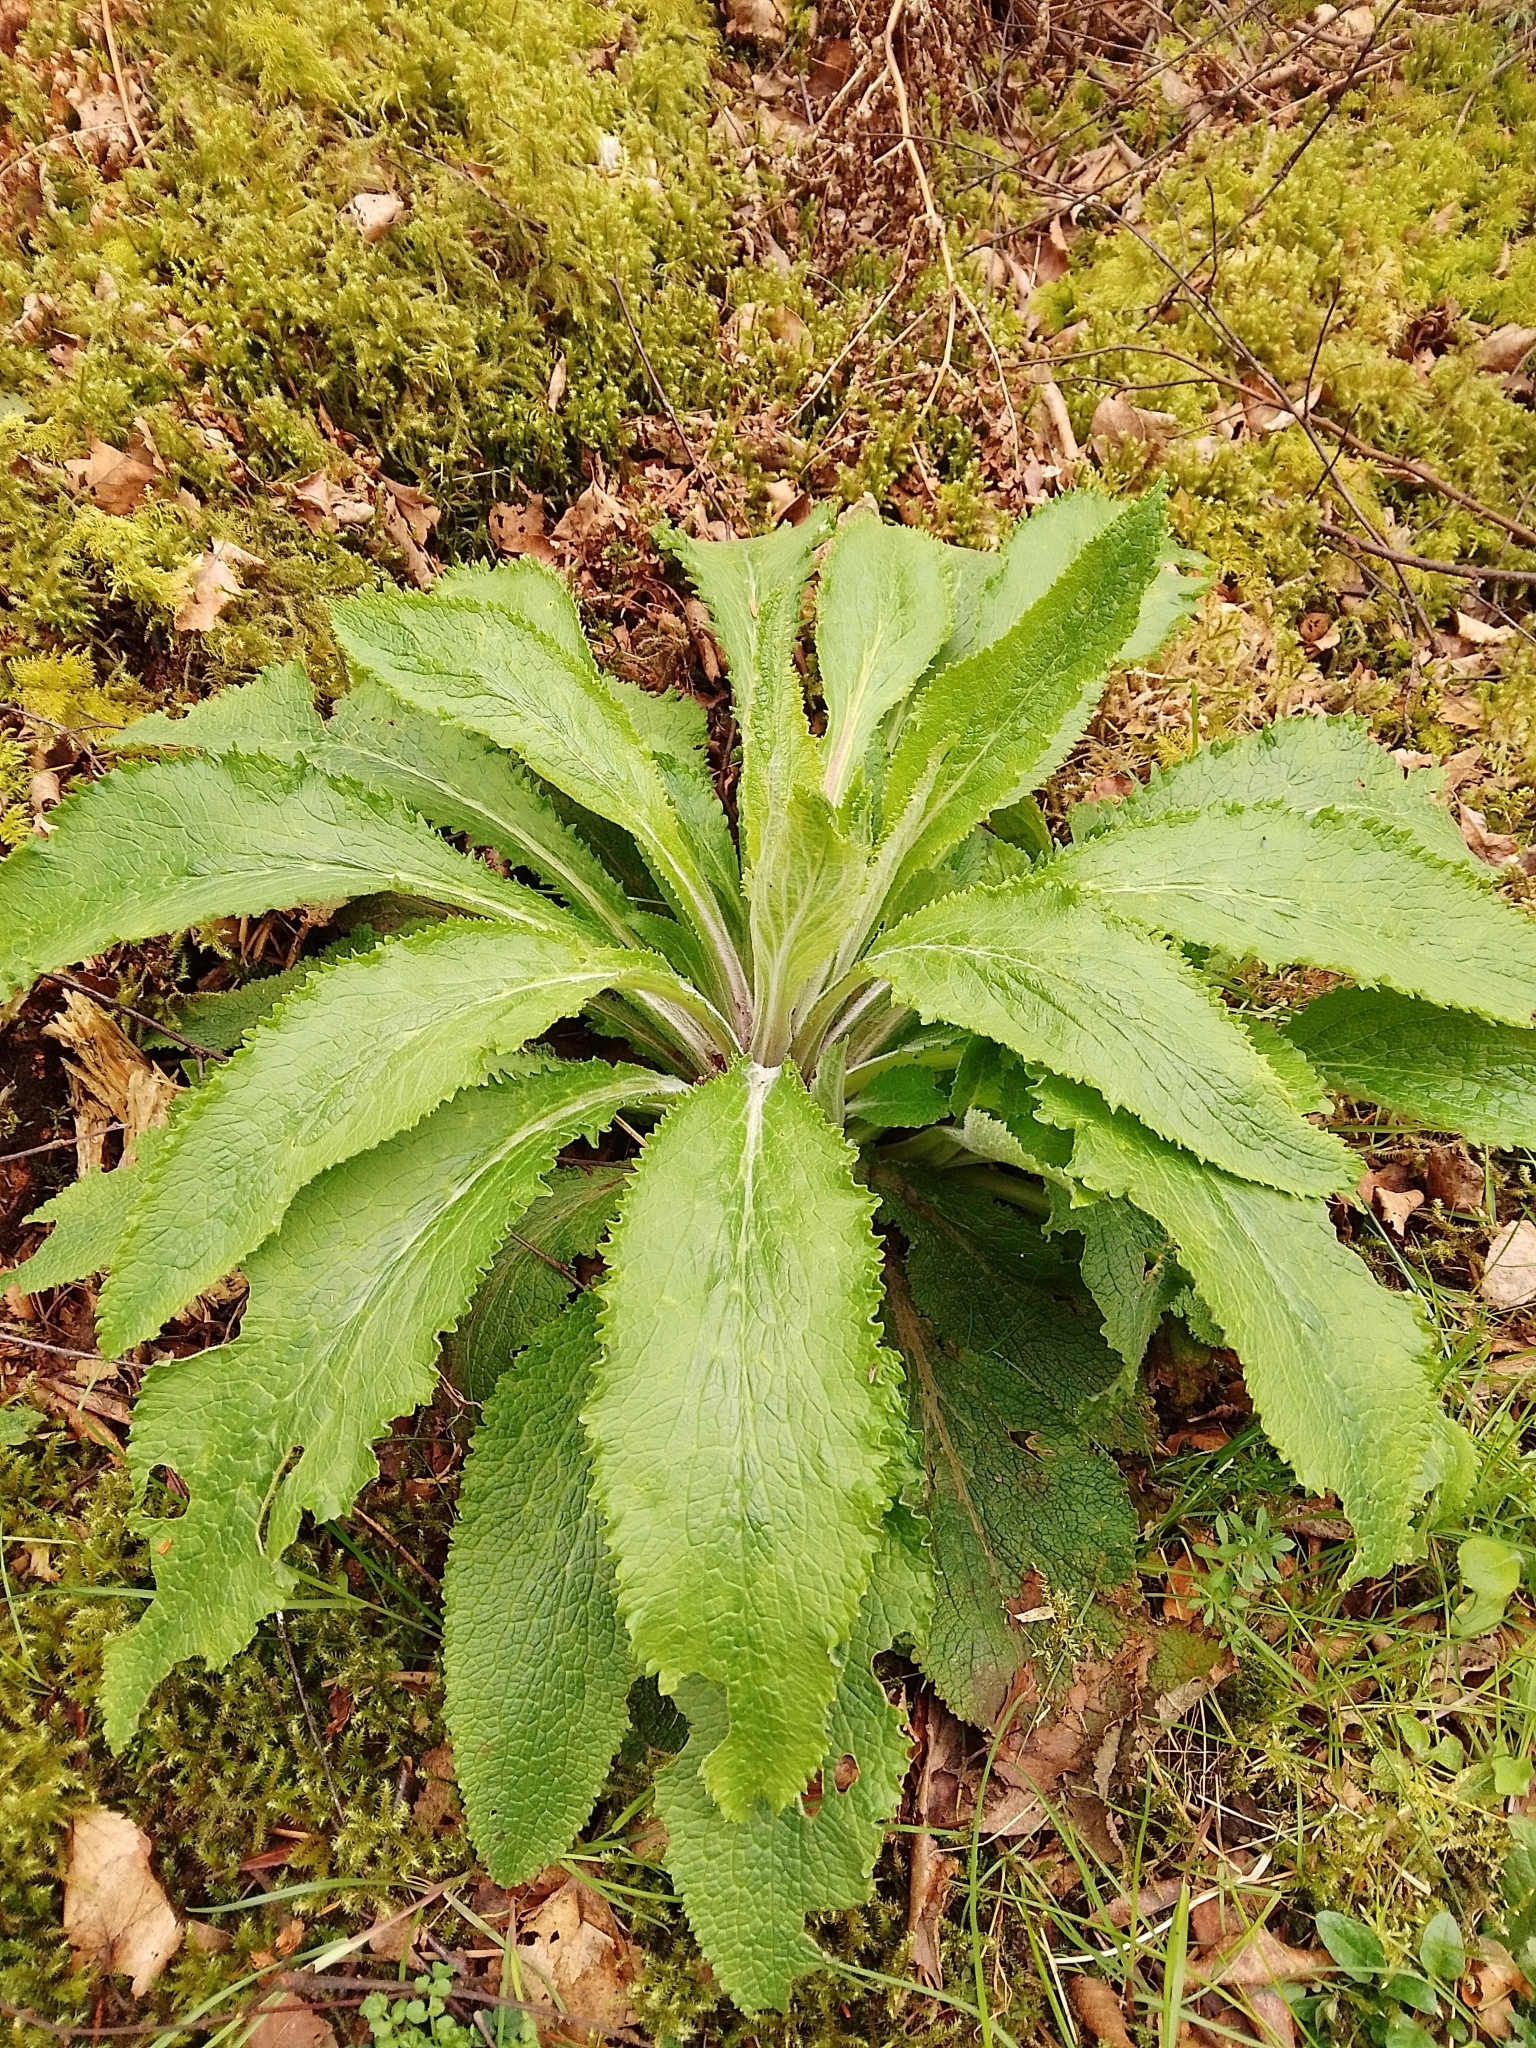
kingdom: Plantae
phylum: Tracheophyta
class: Magnoliopsida
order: Lamiales
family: Plantaginaceae
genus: Digitalis
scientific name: Digitalis purpurea
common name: Foxglove
